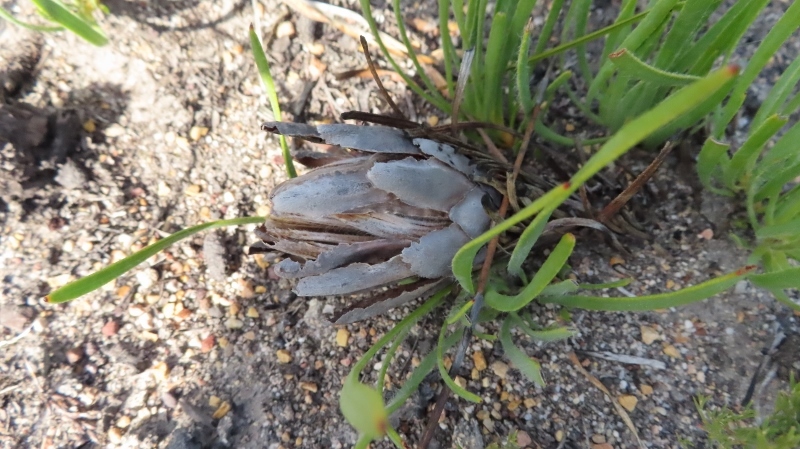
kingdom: Plantae
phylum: Tracheophyta
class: Magnoliopsida
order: Proteales
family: Proteaceae
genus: Protea
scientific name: Protea aspera
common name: Rough-leaf sugarbush
